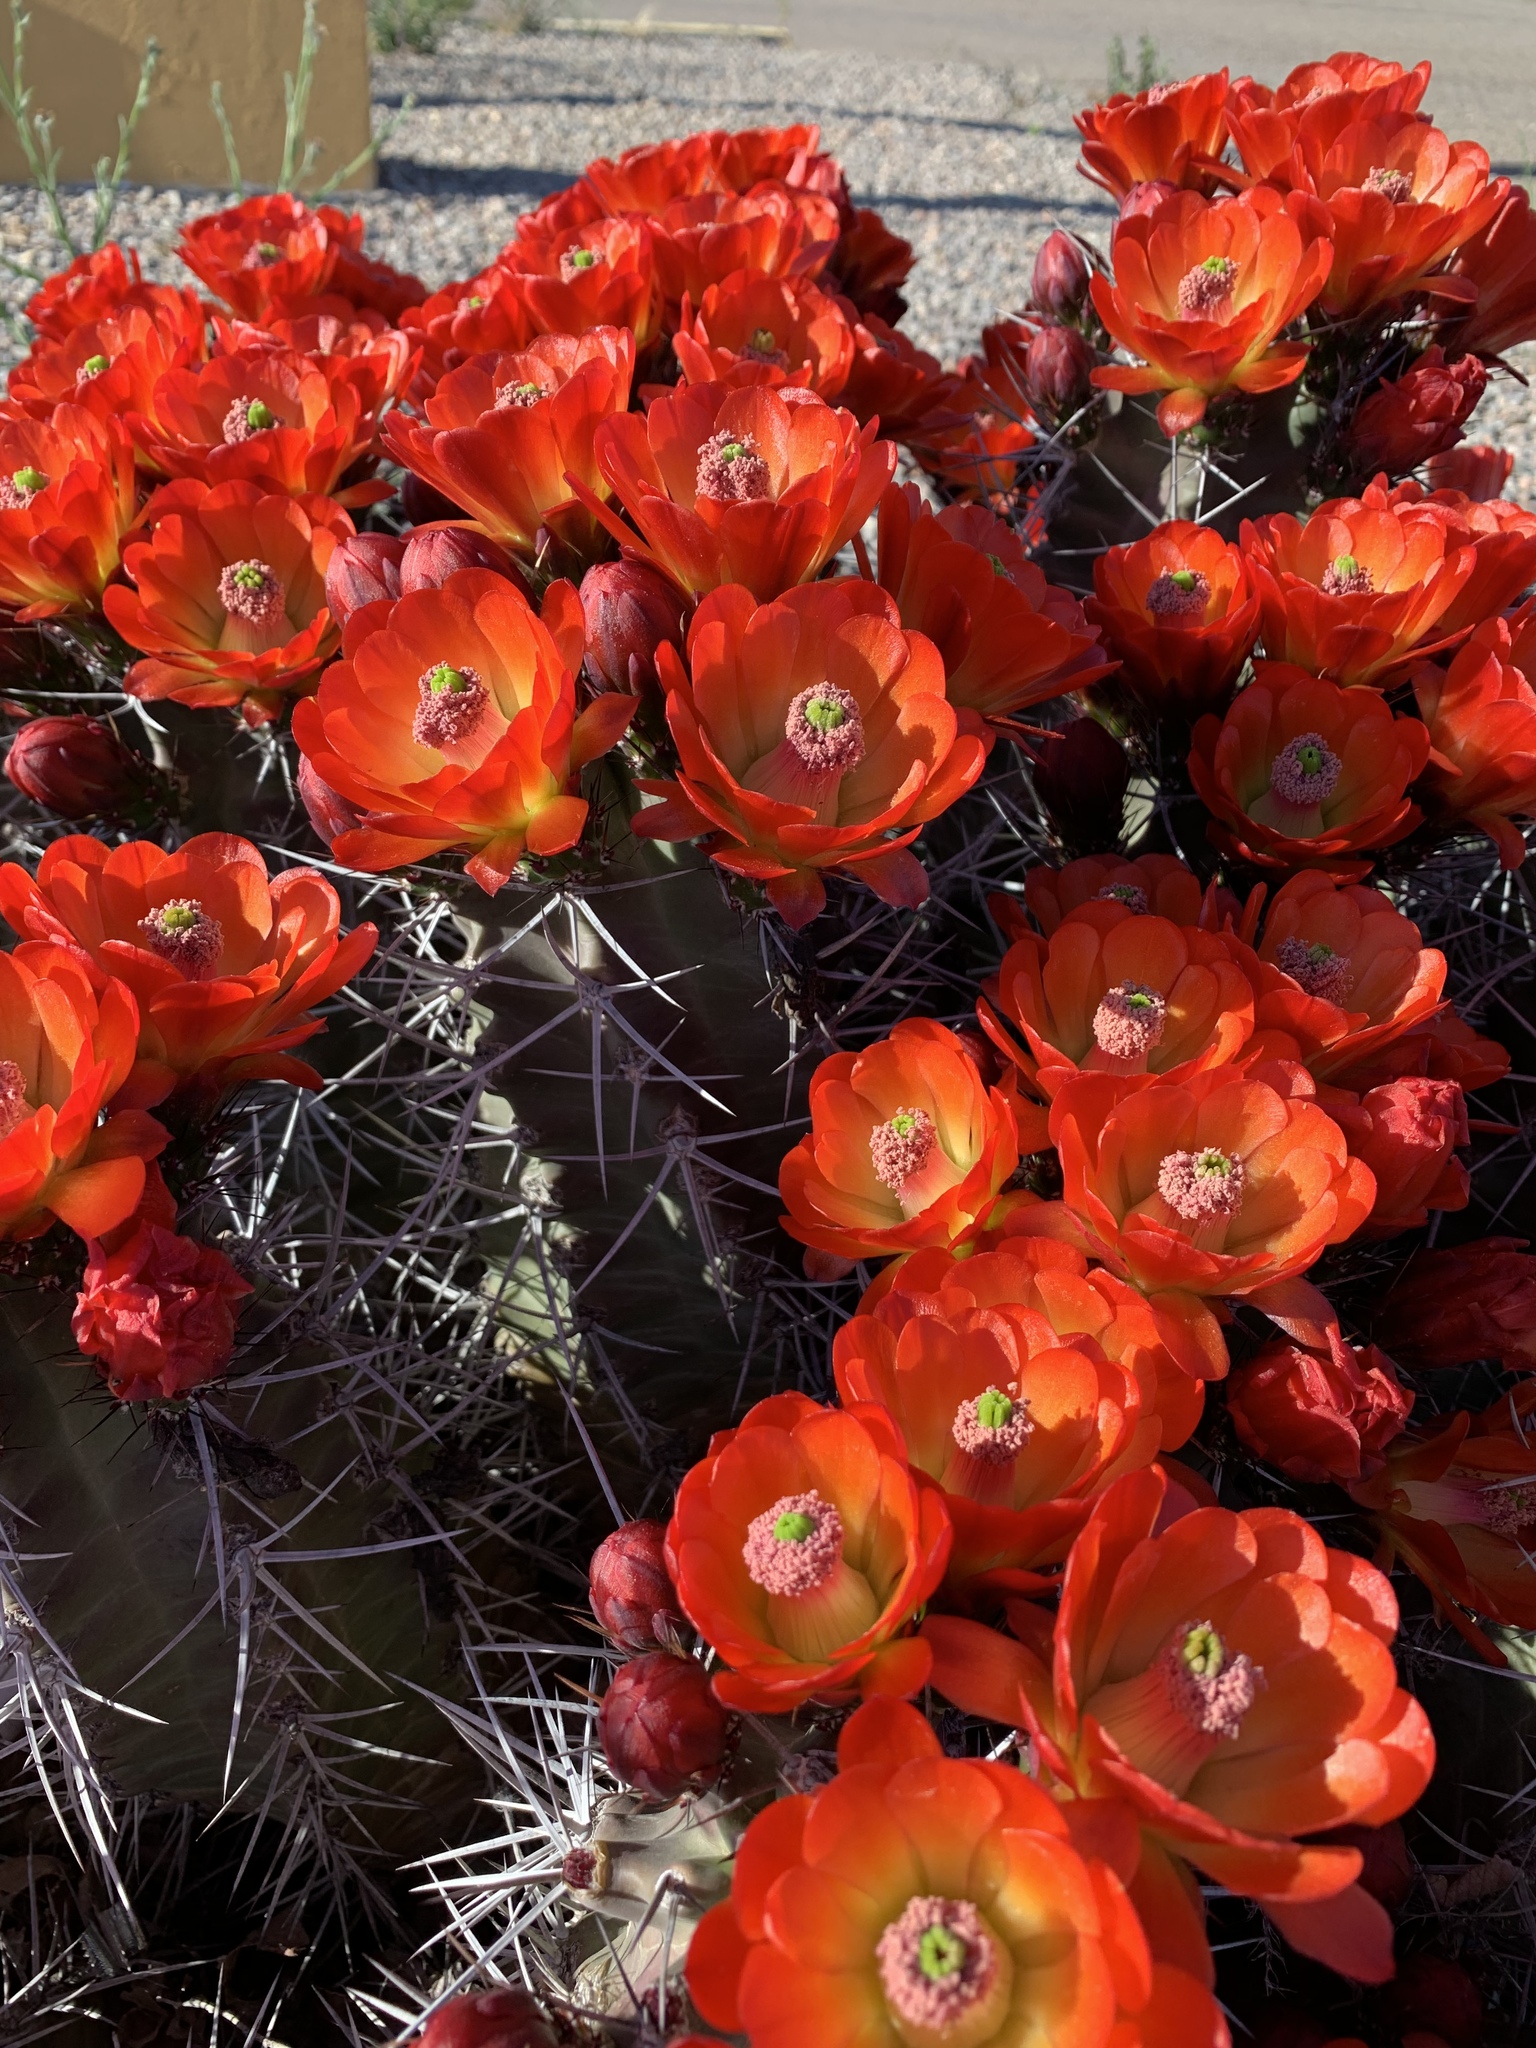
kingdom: Plantae
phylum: Tracheophyta
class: Magnoliopsida
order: Caryophyllales
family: Cactaceae
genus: Echinocereus
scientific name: Echinocereus triglochidiatus
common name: Claretcup hedgehog
